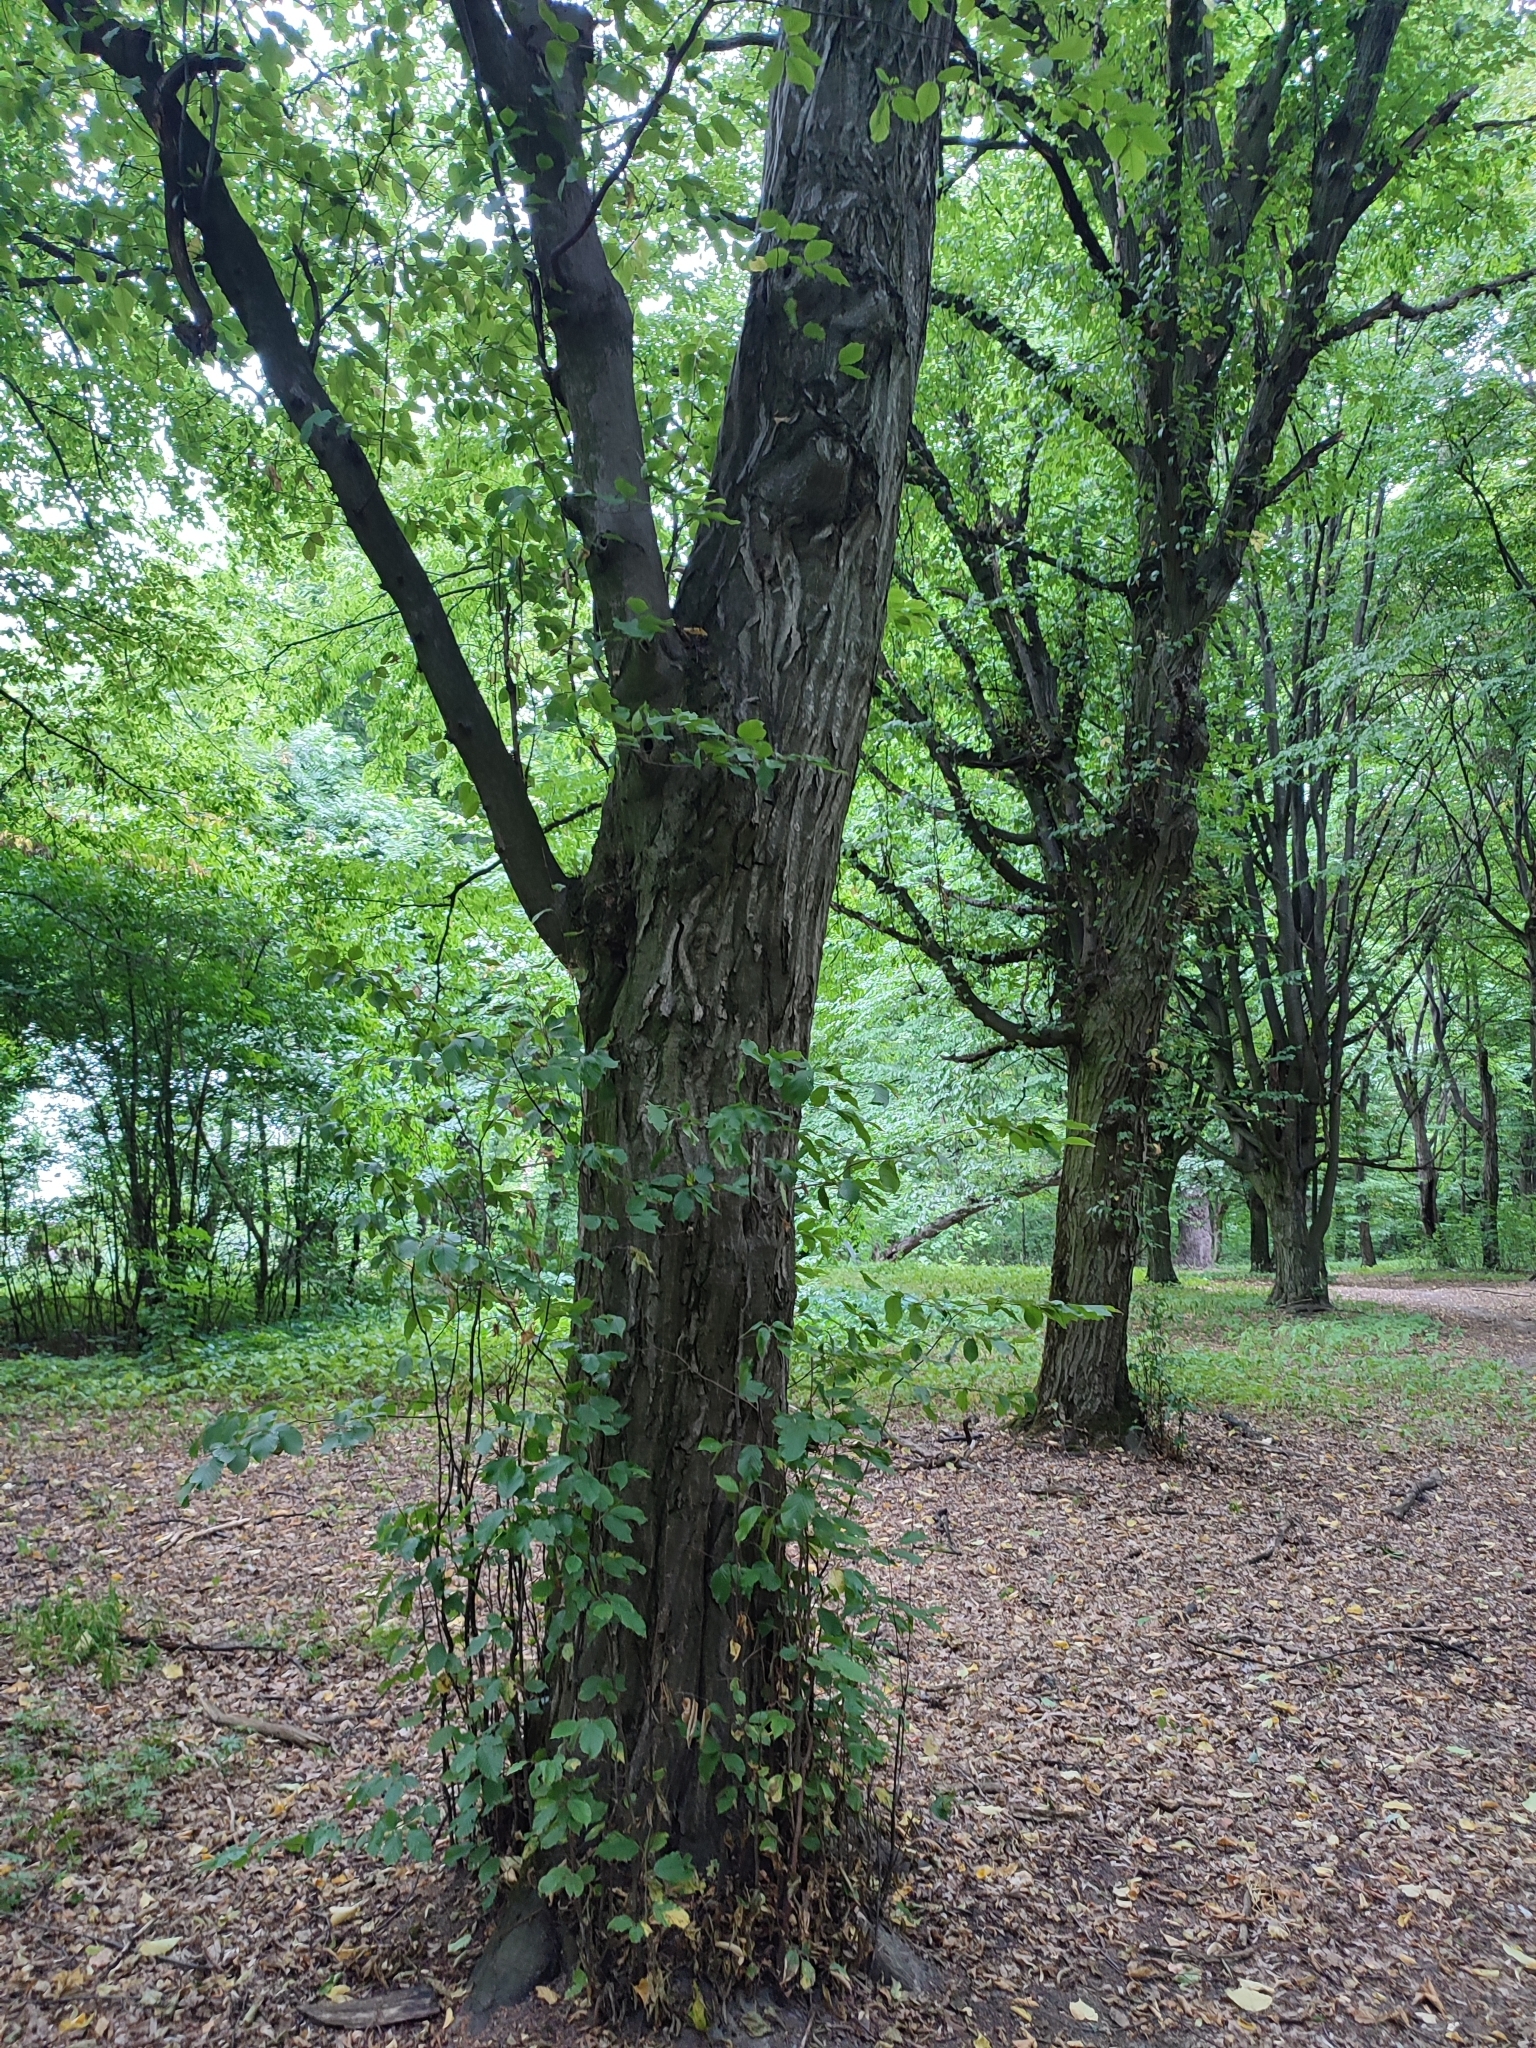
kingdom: Plantae
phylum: Tracheophyta
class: Magnoliopsida
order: Fagales
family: Betulaceae
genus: Carpinus
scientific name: Carpinus betulus
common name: Hornbeam
